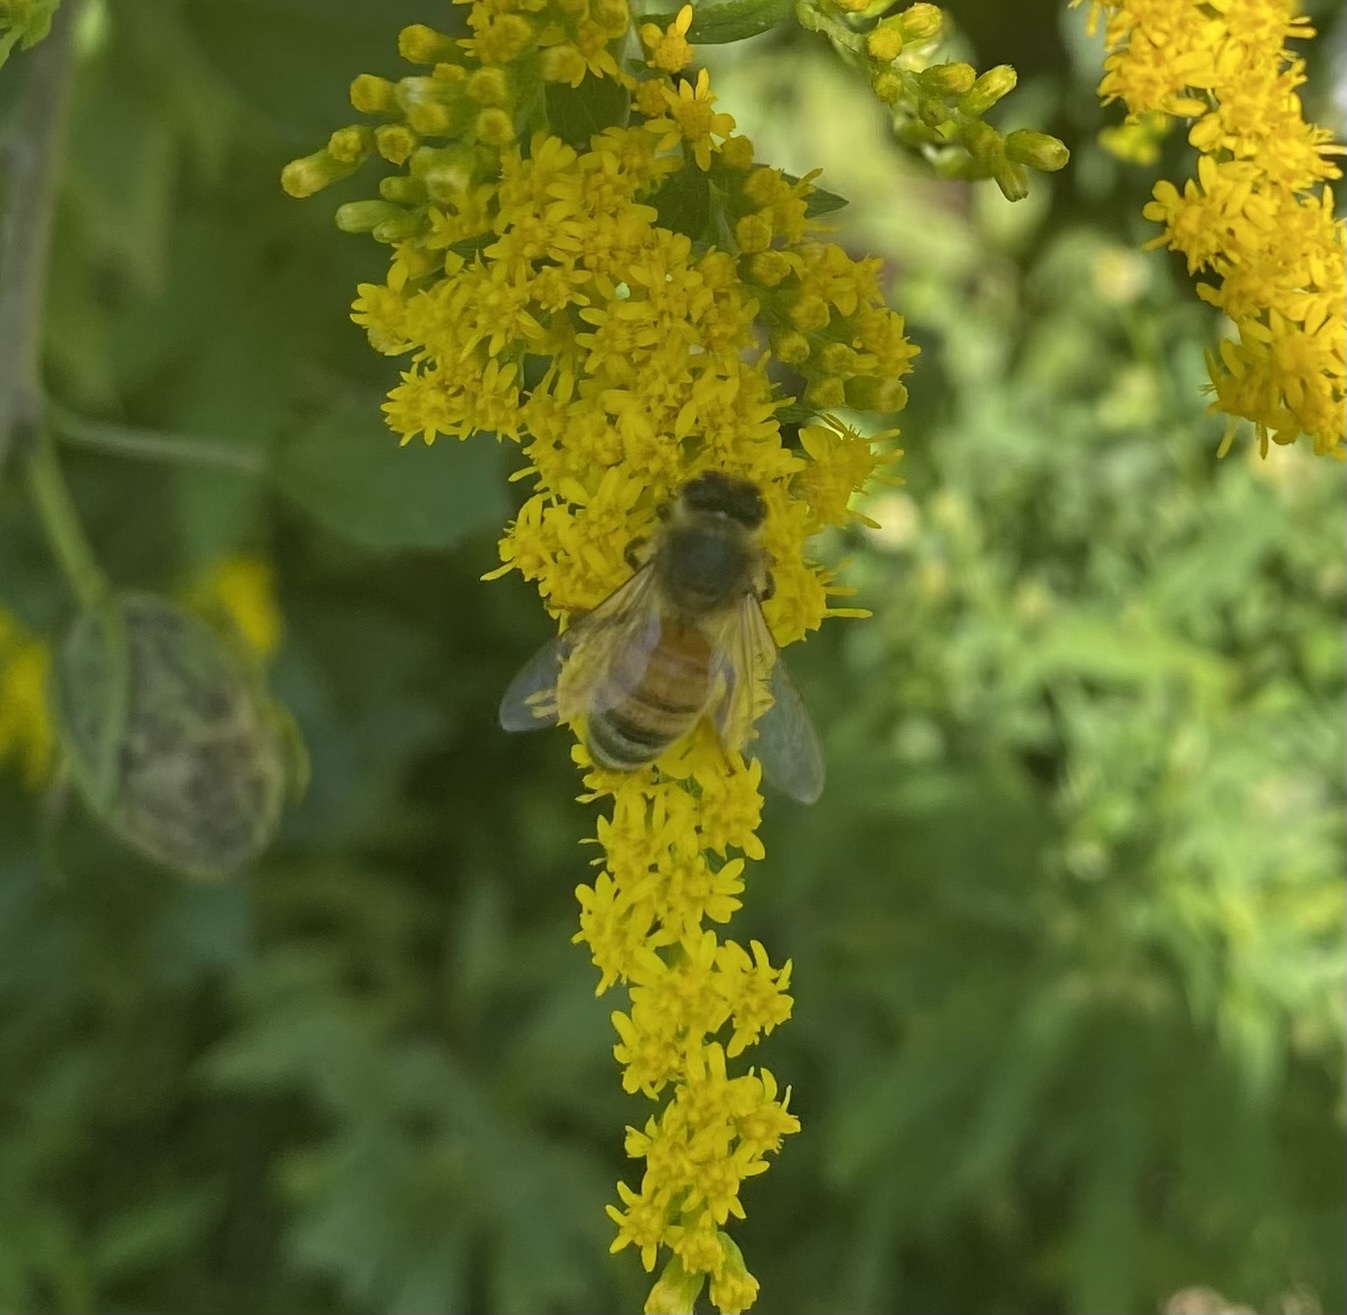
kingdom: Animalia
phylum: Arthropoda
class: Insecta
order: Hymenoptera
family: Apidae
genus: Apis
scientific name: Apis mellifera
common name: Honey bee
